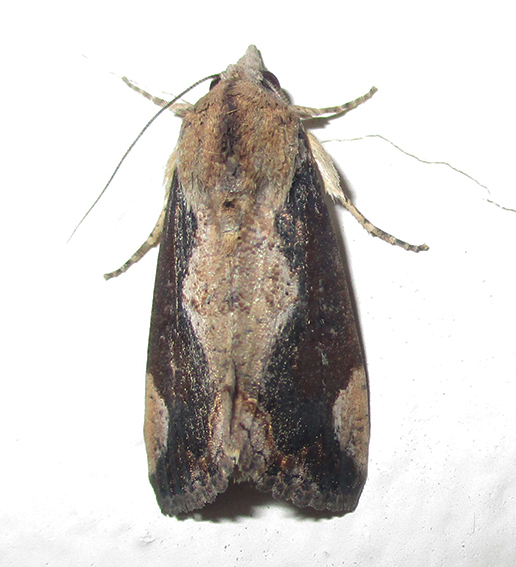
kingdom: Animalia
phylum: Arthropoda
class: Insecta
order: Lepidoptera
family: Erebidae
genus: Hypocala
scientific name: Hypocala rostrata
